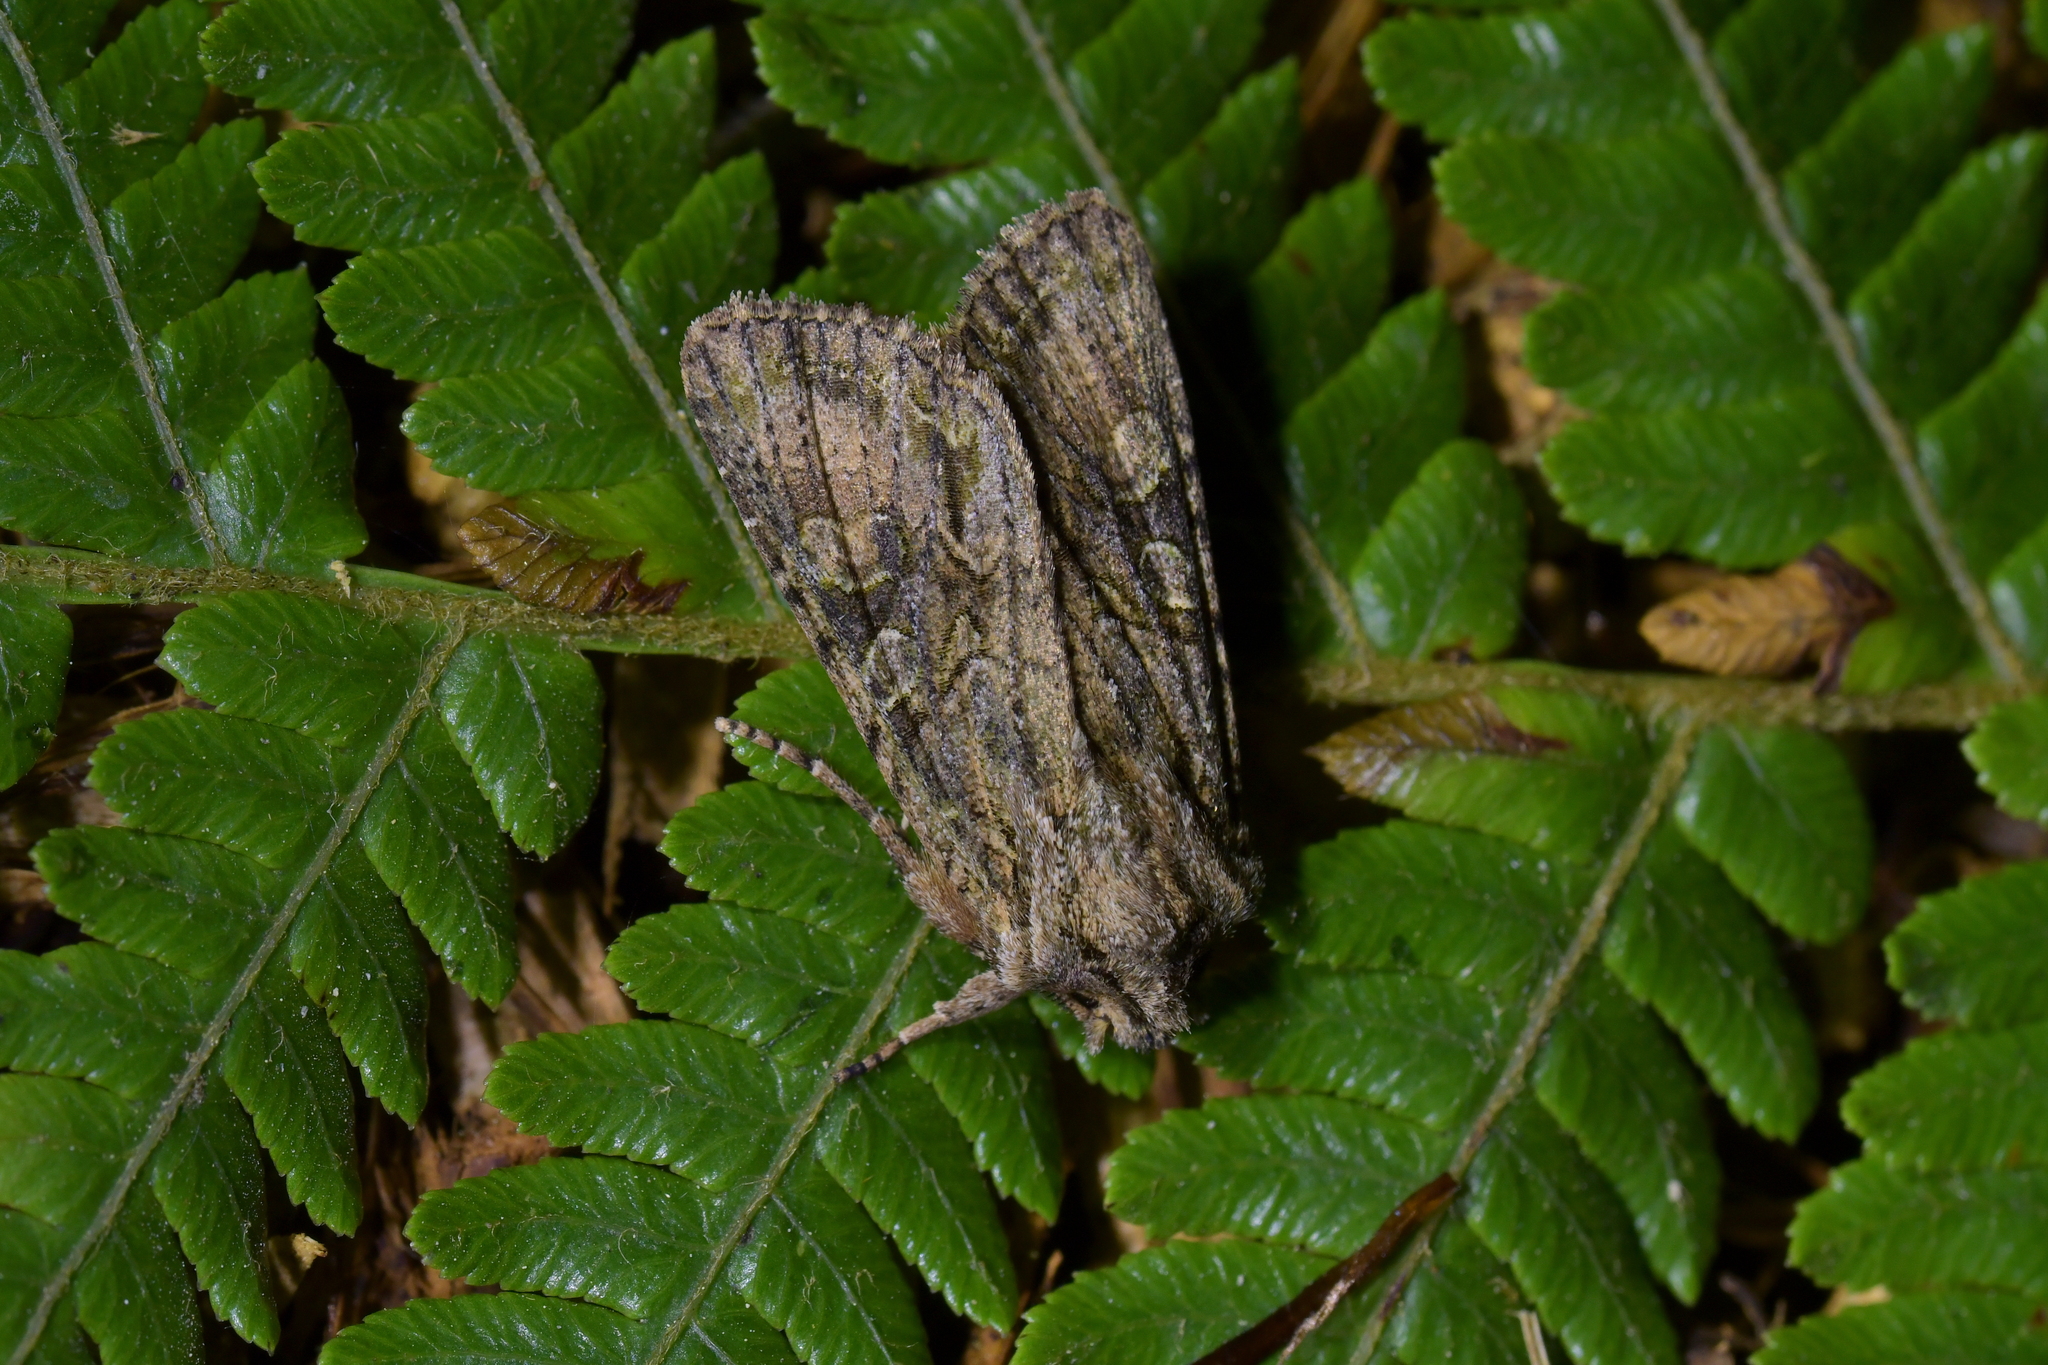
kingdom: Animalia
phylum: Arthropoda
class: Insecta
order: Lepidoptera
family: Noctuidae
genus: Ichneutica
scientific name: Ichneutica mutans
